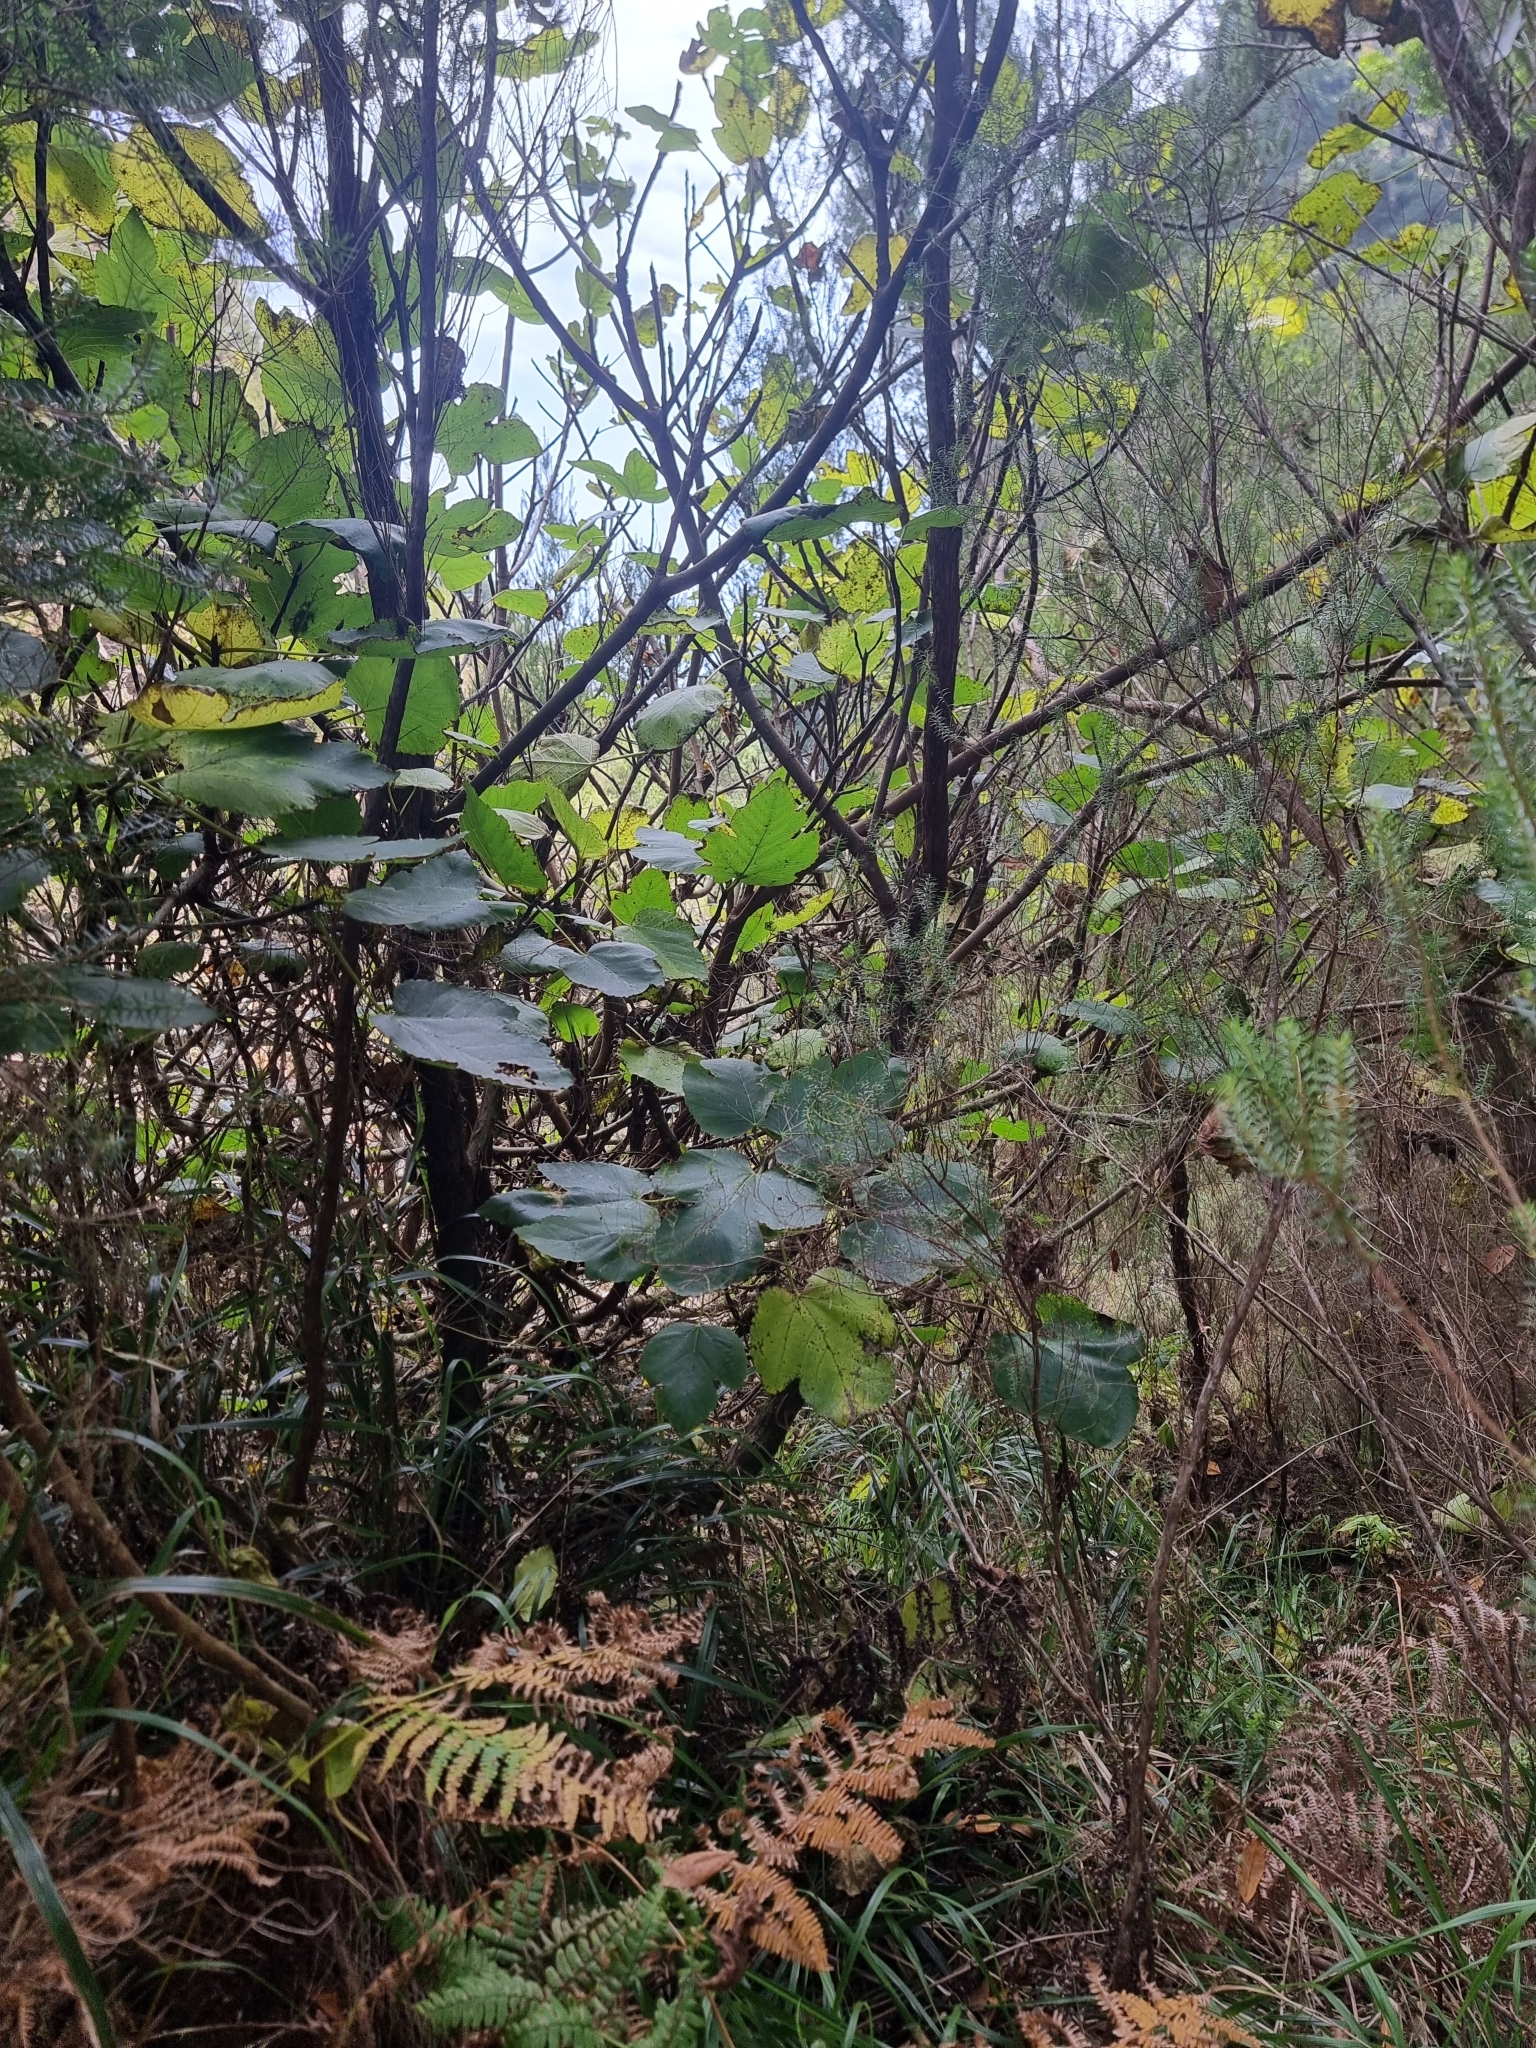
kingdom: Plantae
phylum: Tracheophyta
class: Magnoliopsida
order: Rosales
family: Moraceae
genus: Ficus
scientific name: Ficus carica
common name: Fig
